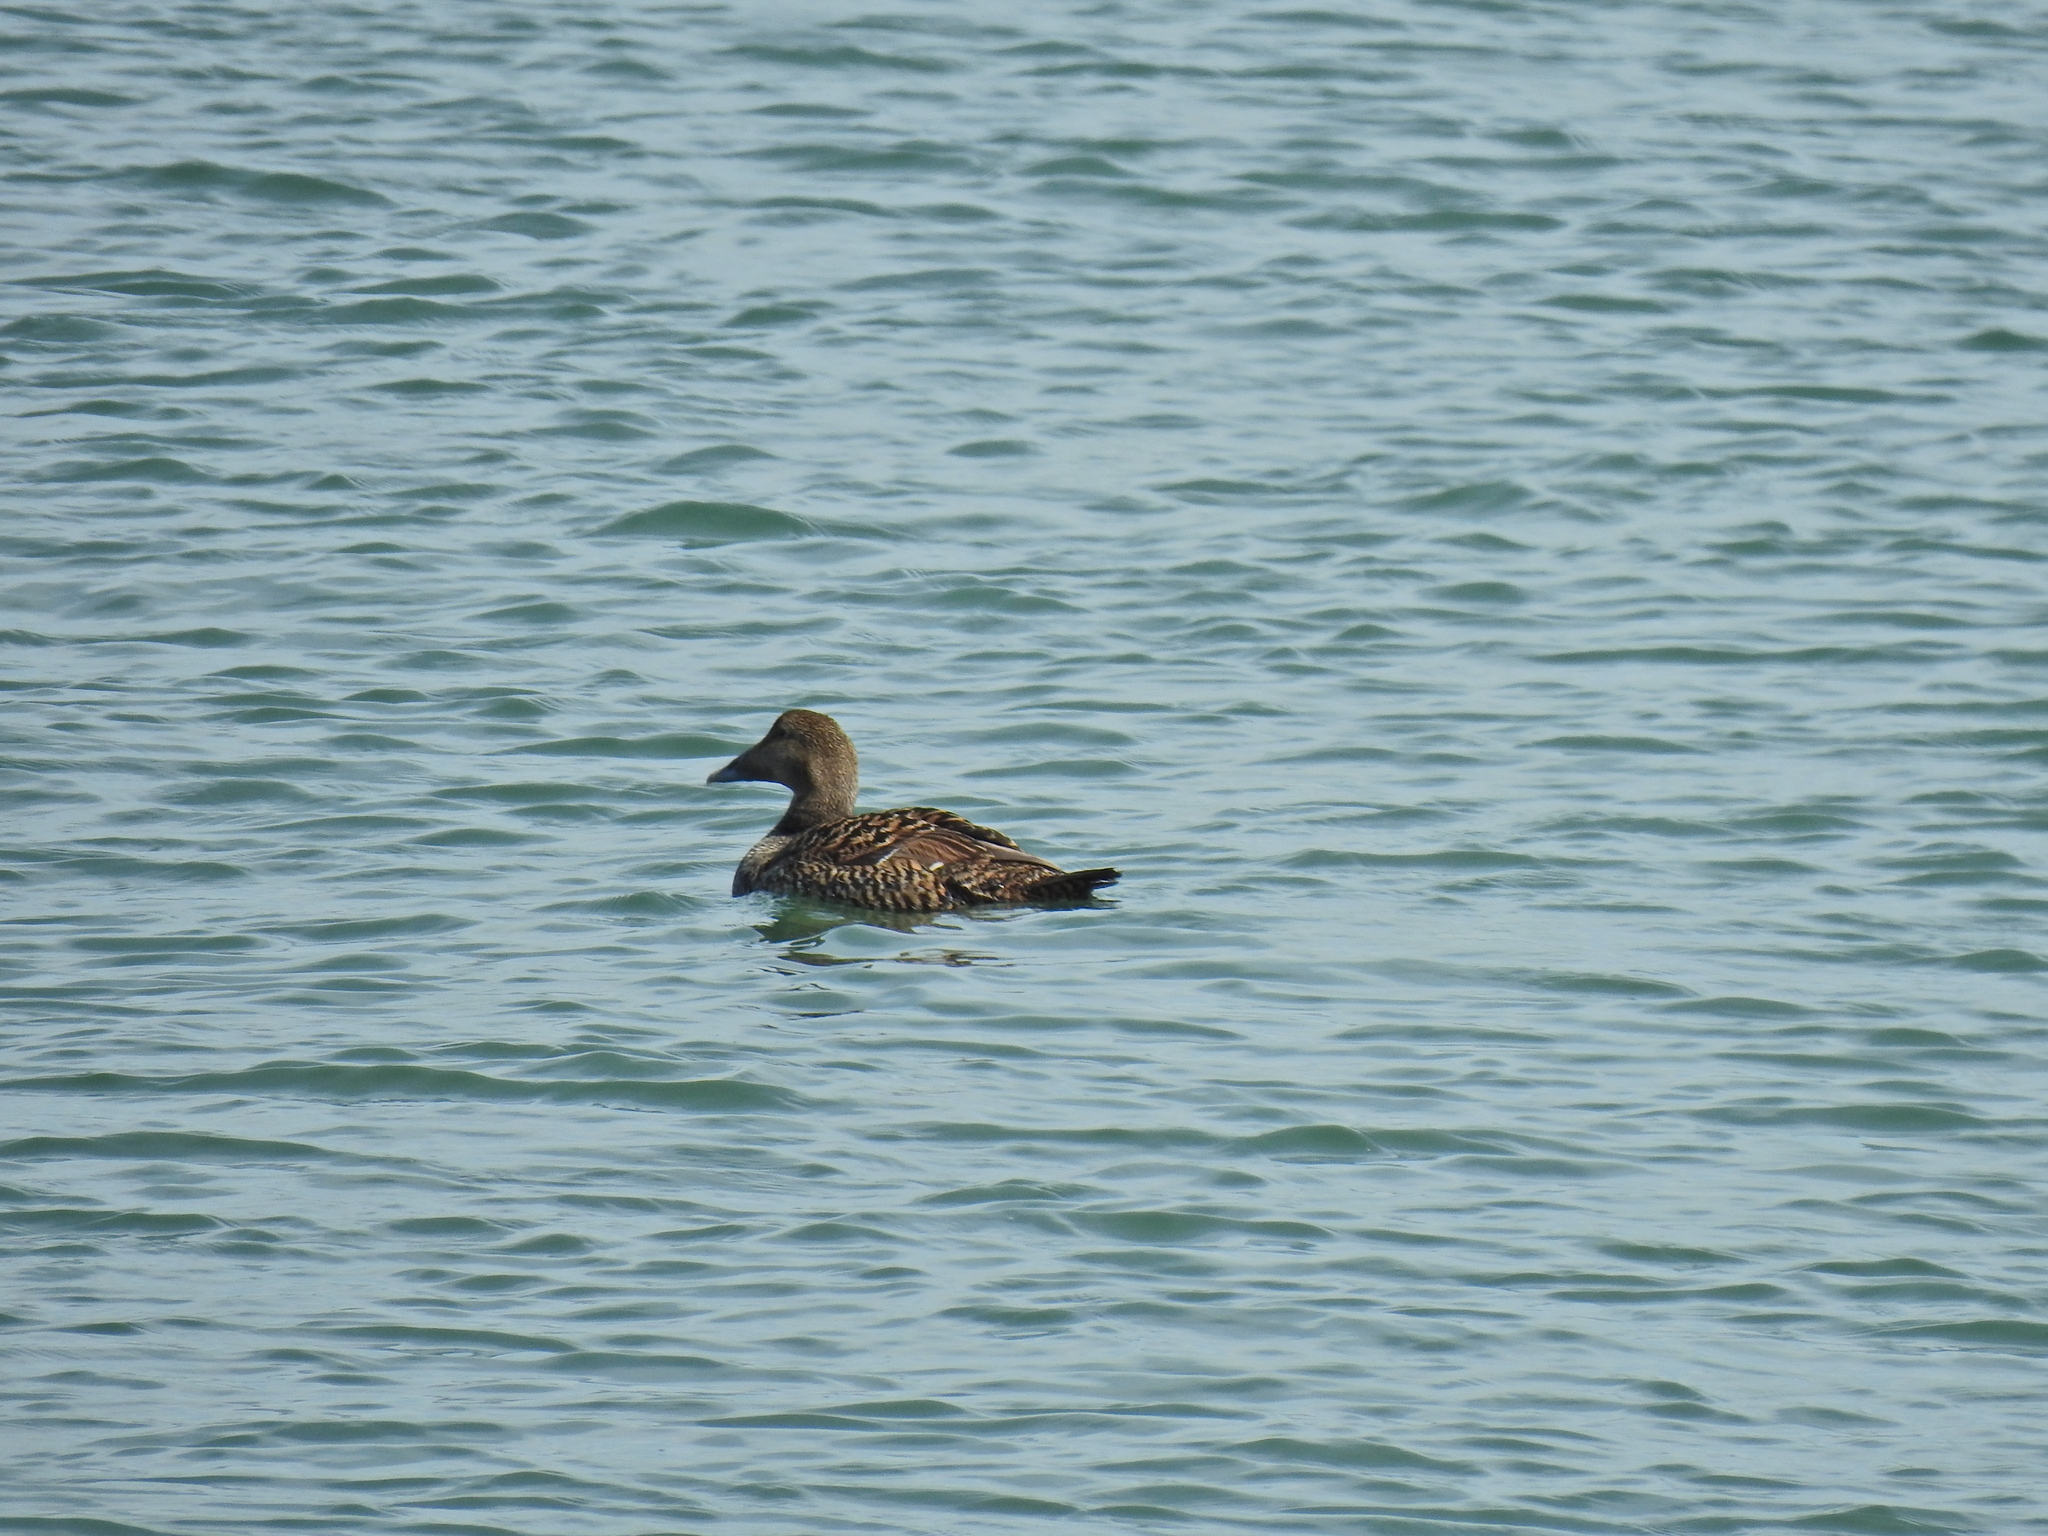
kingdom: Animalia
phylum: Chordata
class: Aves
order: Anseriformes
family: Anatidae
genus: Somateria
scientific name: Somateria mollissima
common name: Common eider
